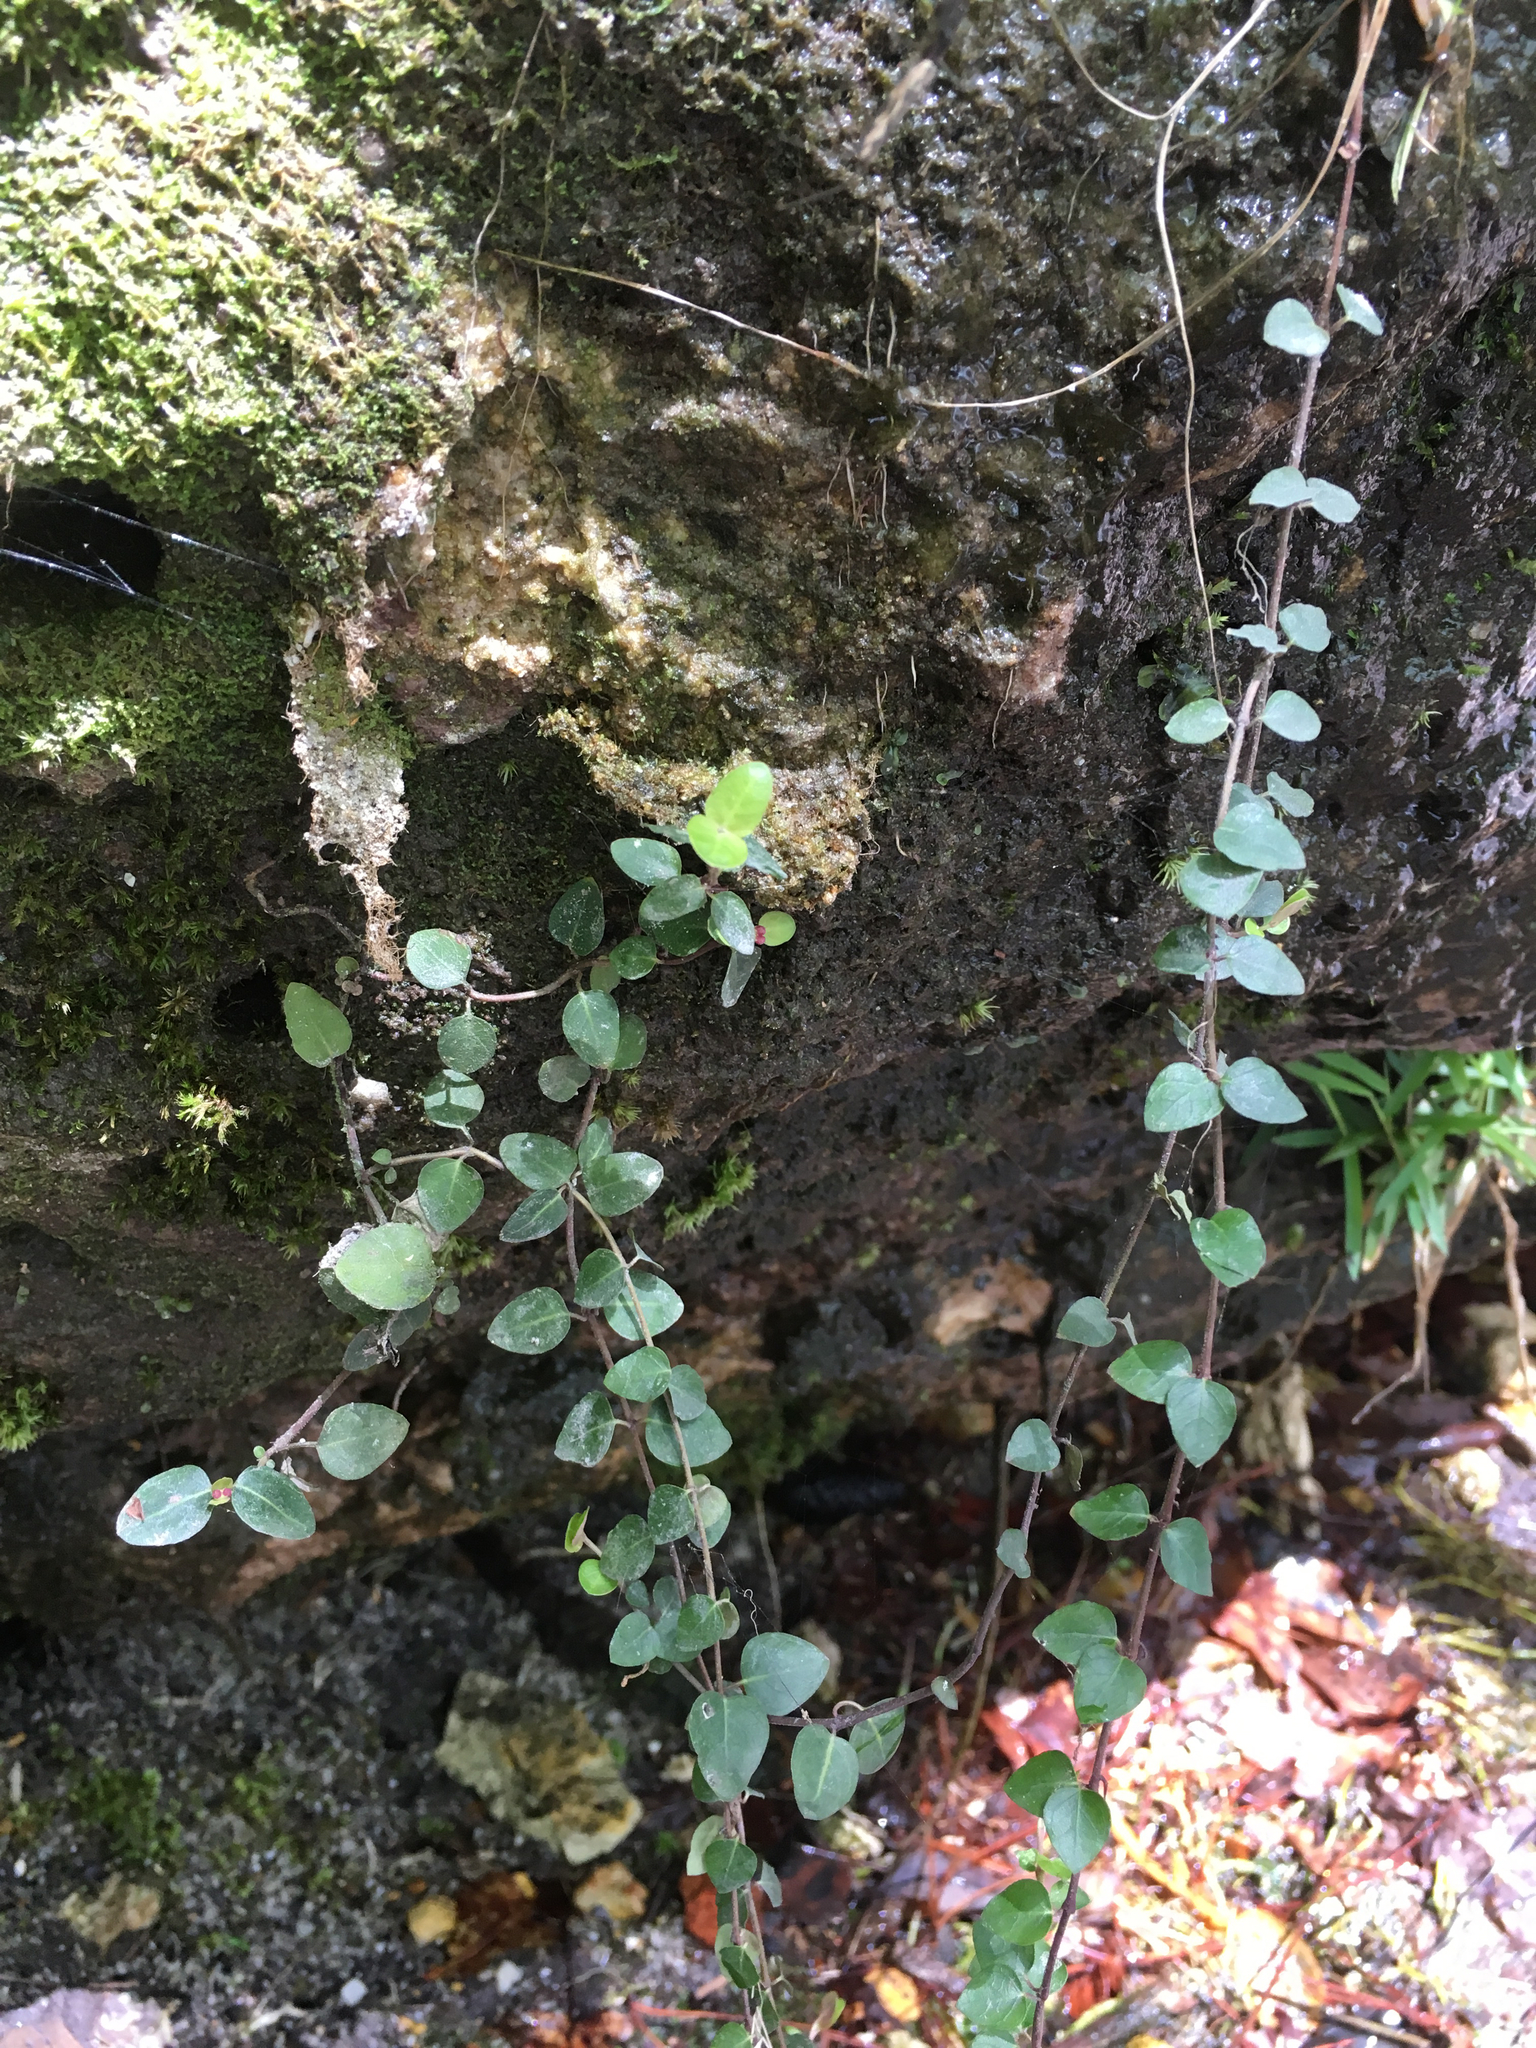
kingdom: Plantae
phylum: Tracheophyta
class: Magnoliopsida
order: Gentianales
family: Rubiaceae
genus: Mitchella
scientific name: Mitchella repens
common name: Partridge-berry
